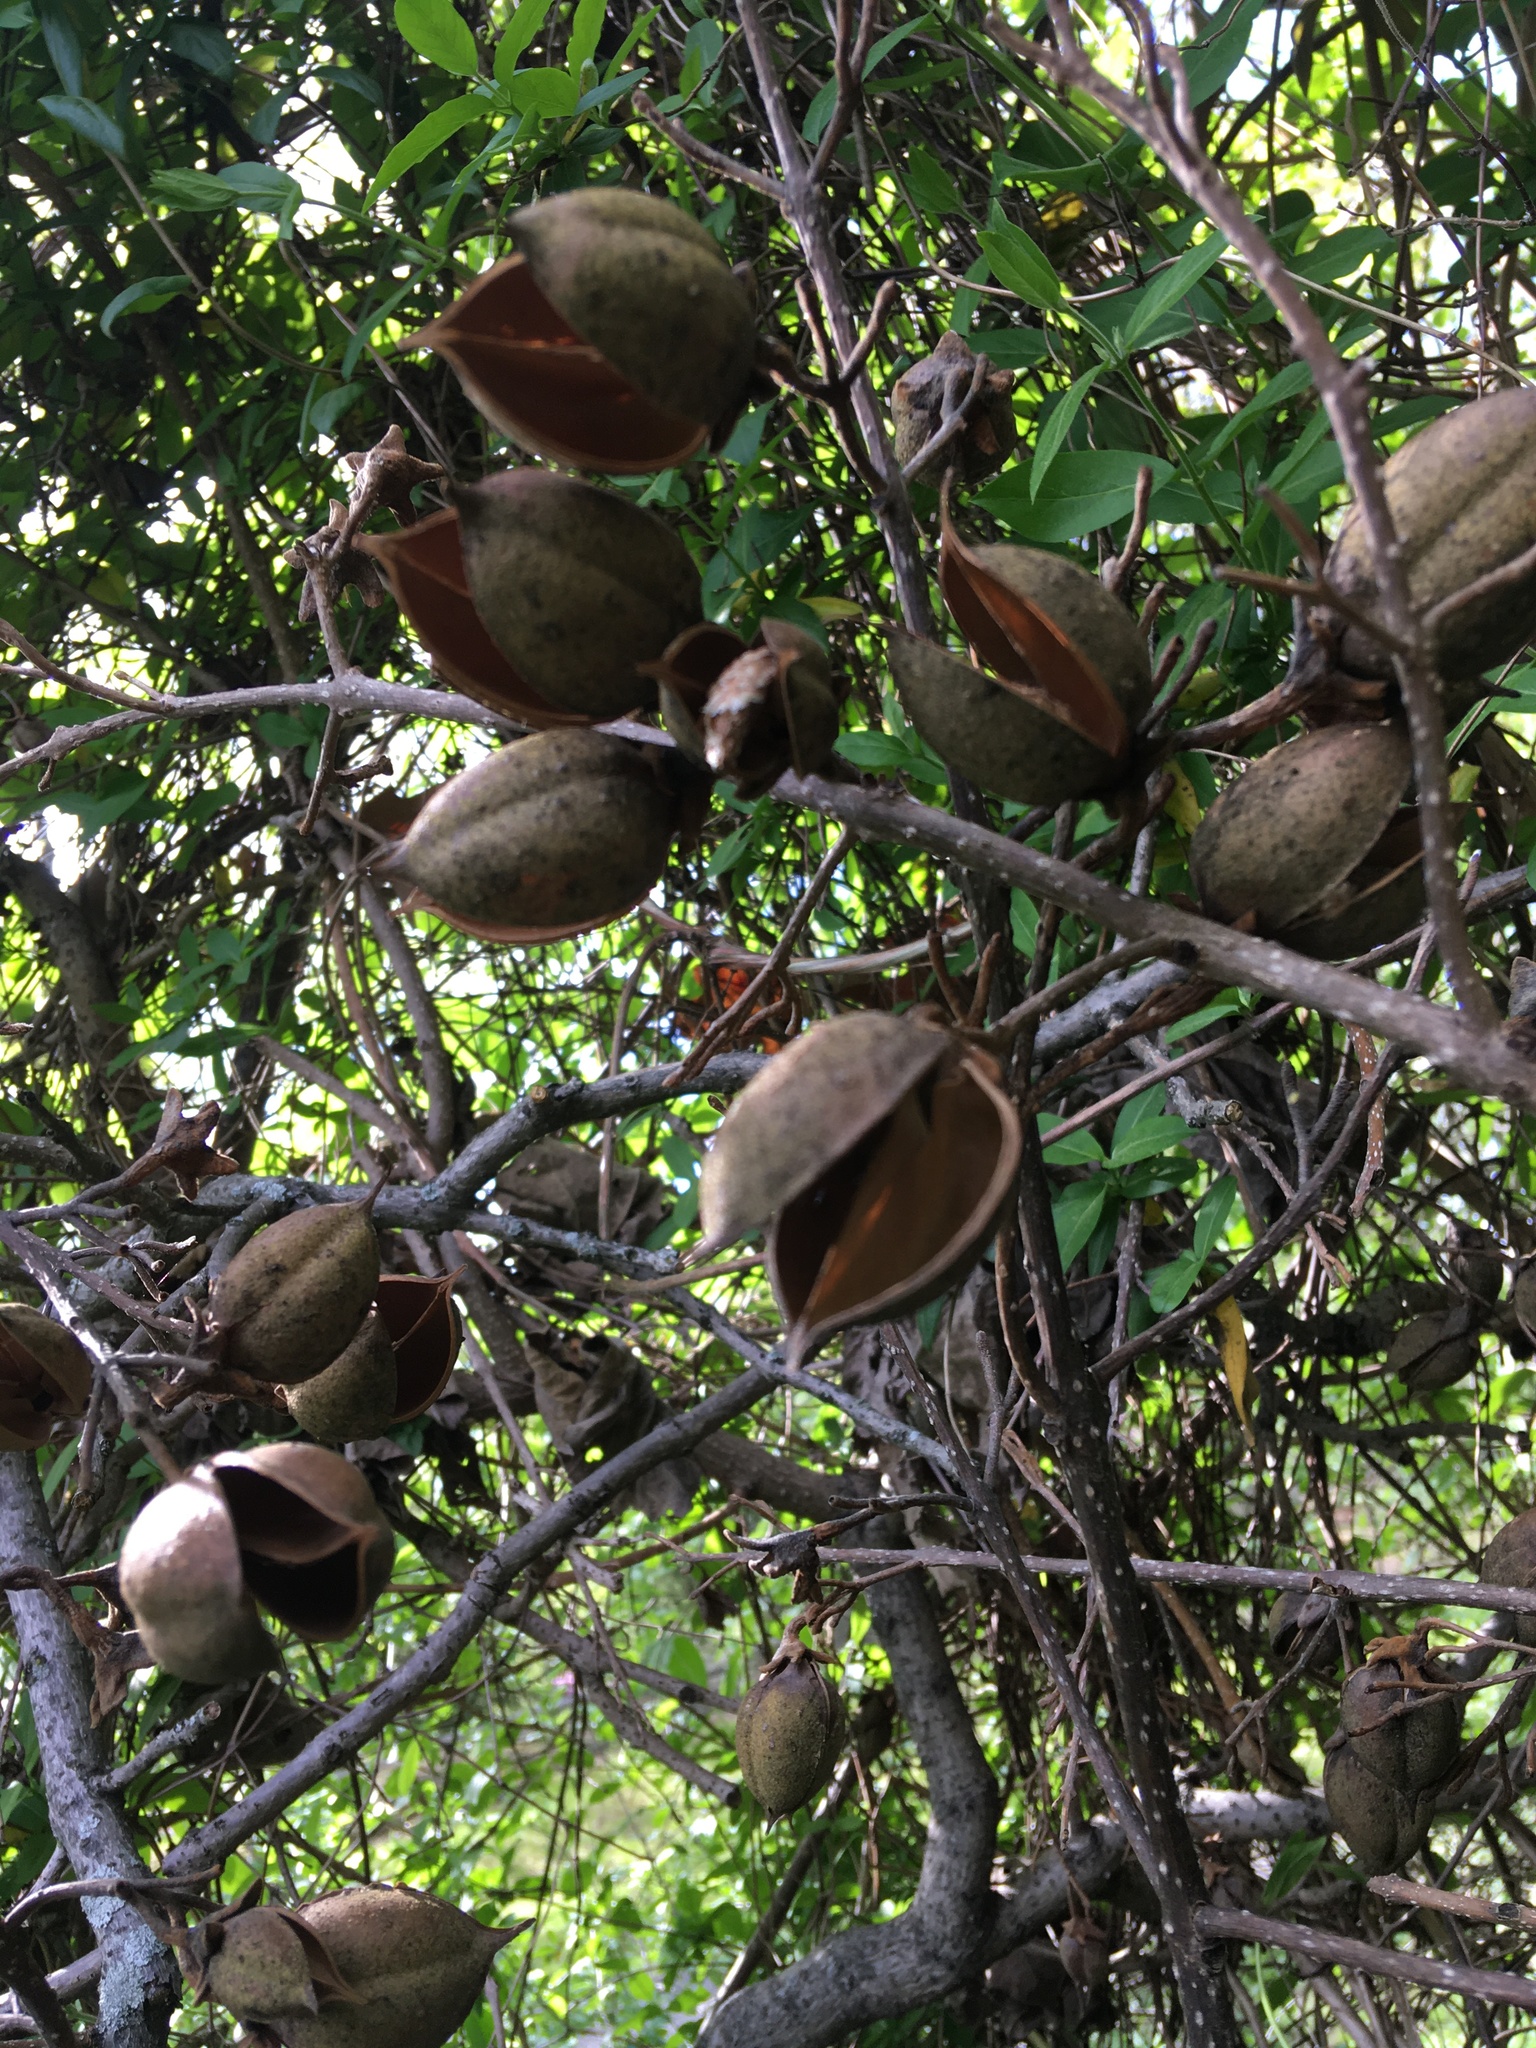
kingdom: Plantae
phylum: Tracheophyta
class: Magnoliopsida
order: Lamiales
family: Paulowniaceae
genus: Paulownia
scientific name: Paulownia tomentosa
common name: Foxglove-tree
